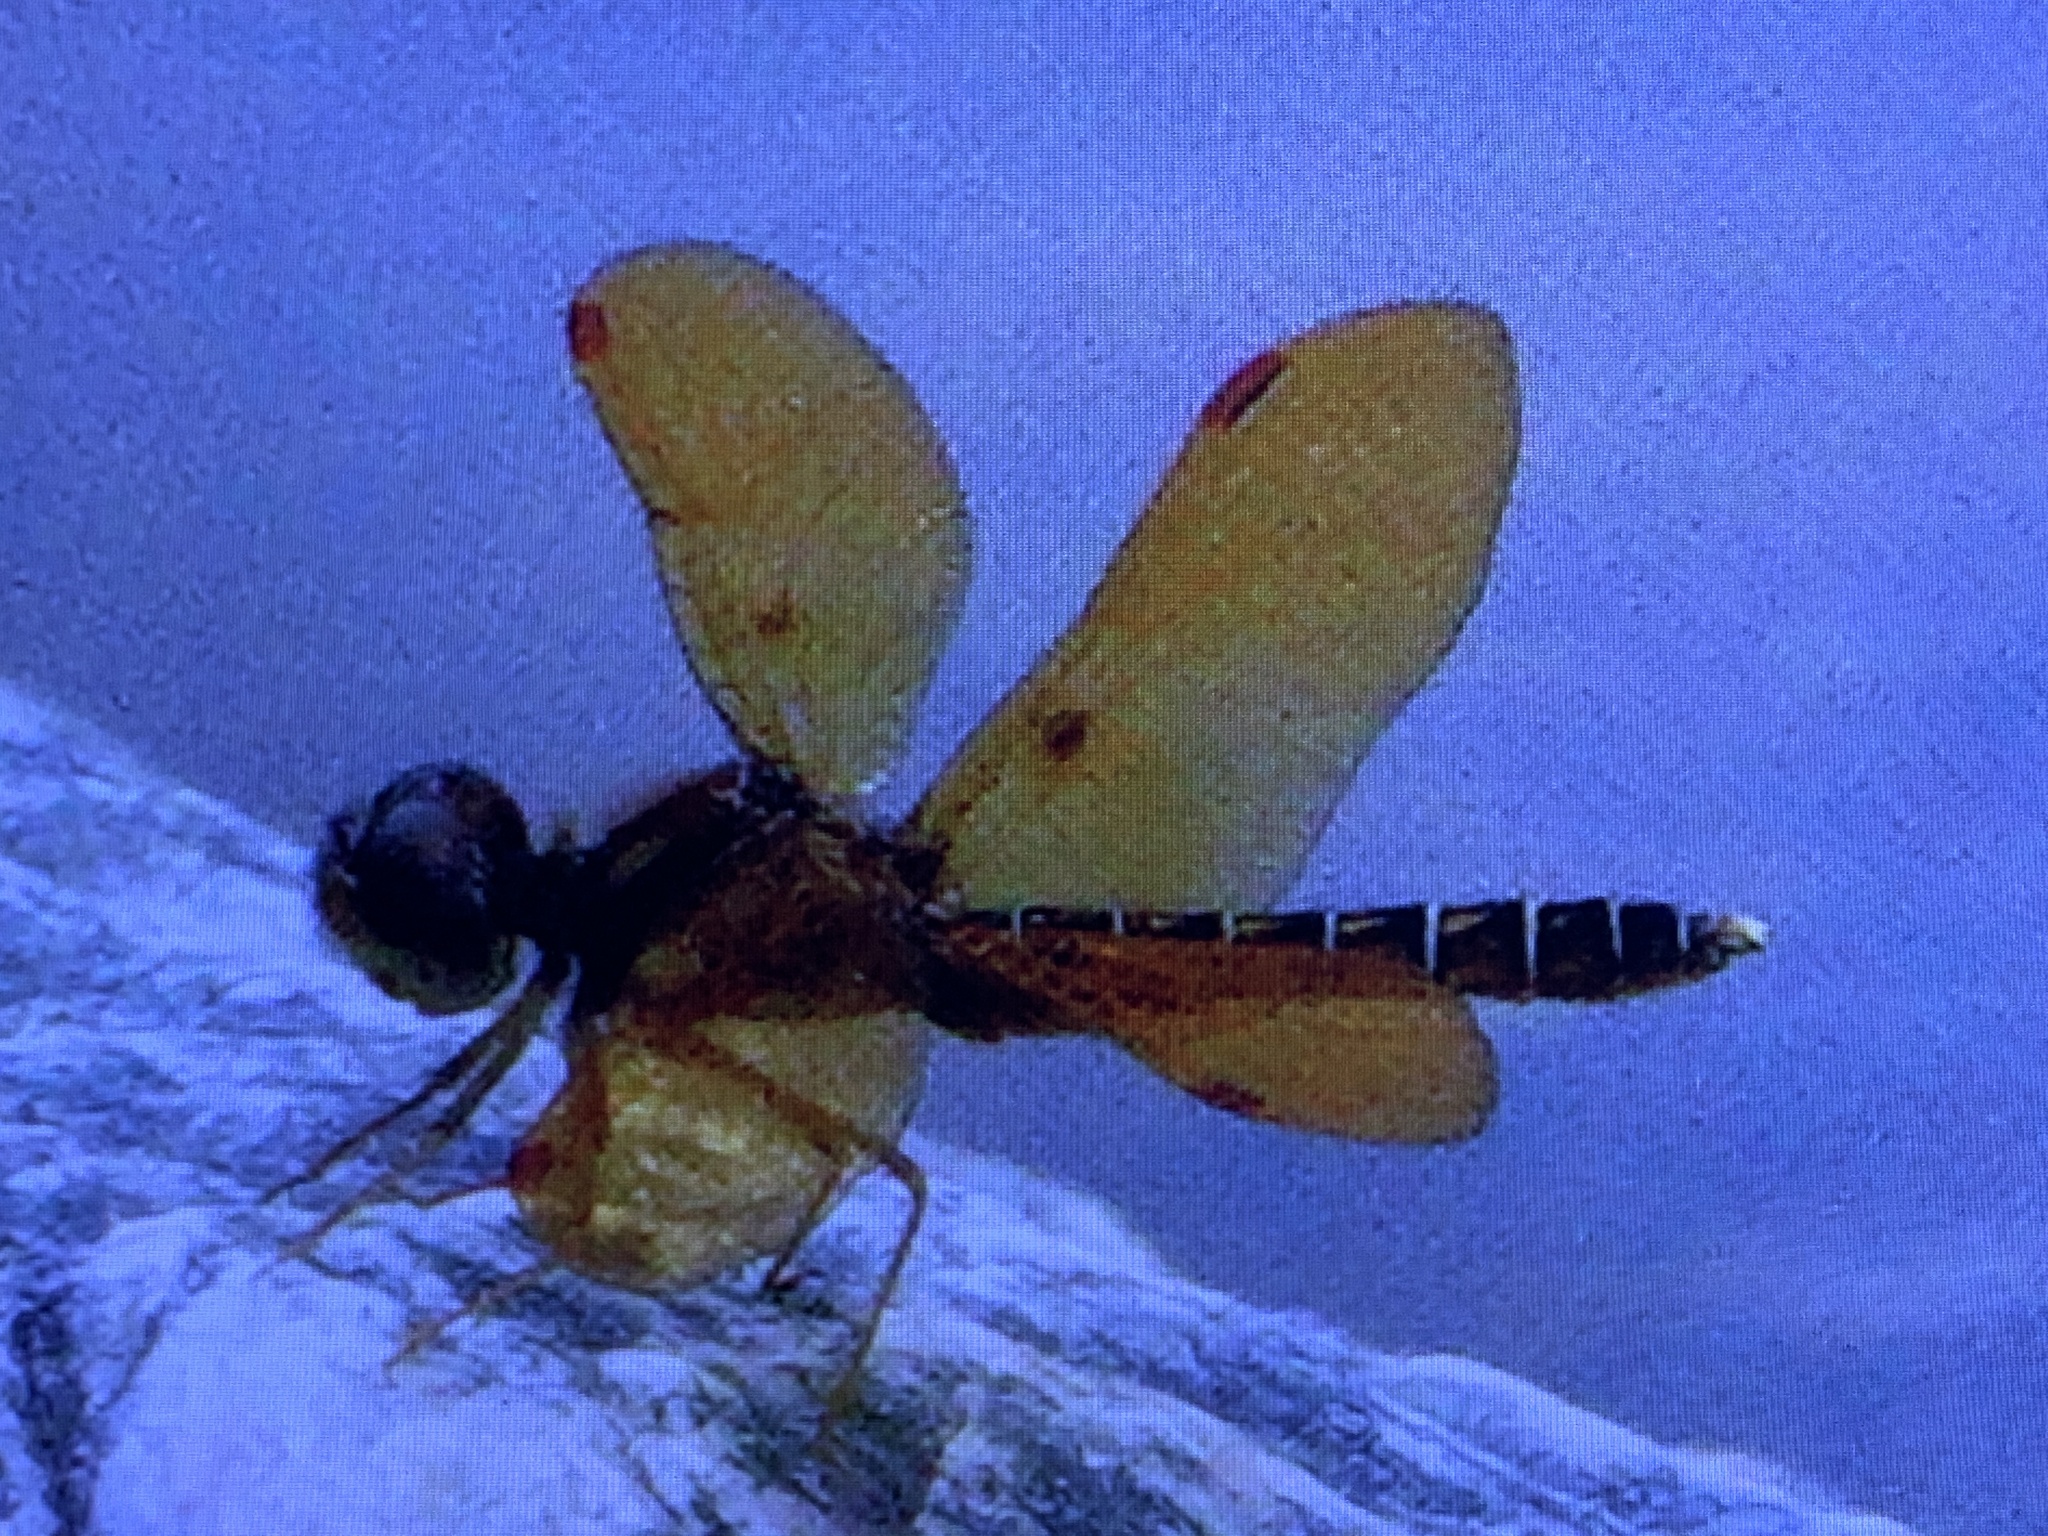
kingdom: Animalia
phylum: Arthropoda
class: Insecta
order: Odonata
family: Libellulidae
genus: Perithemis
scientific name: Perithemis tenera
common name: Eastern amberwing
